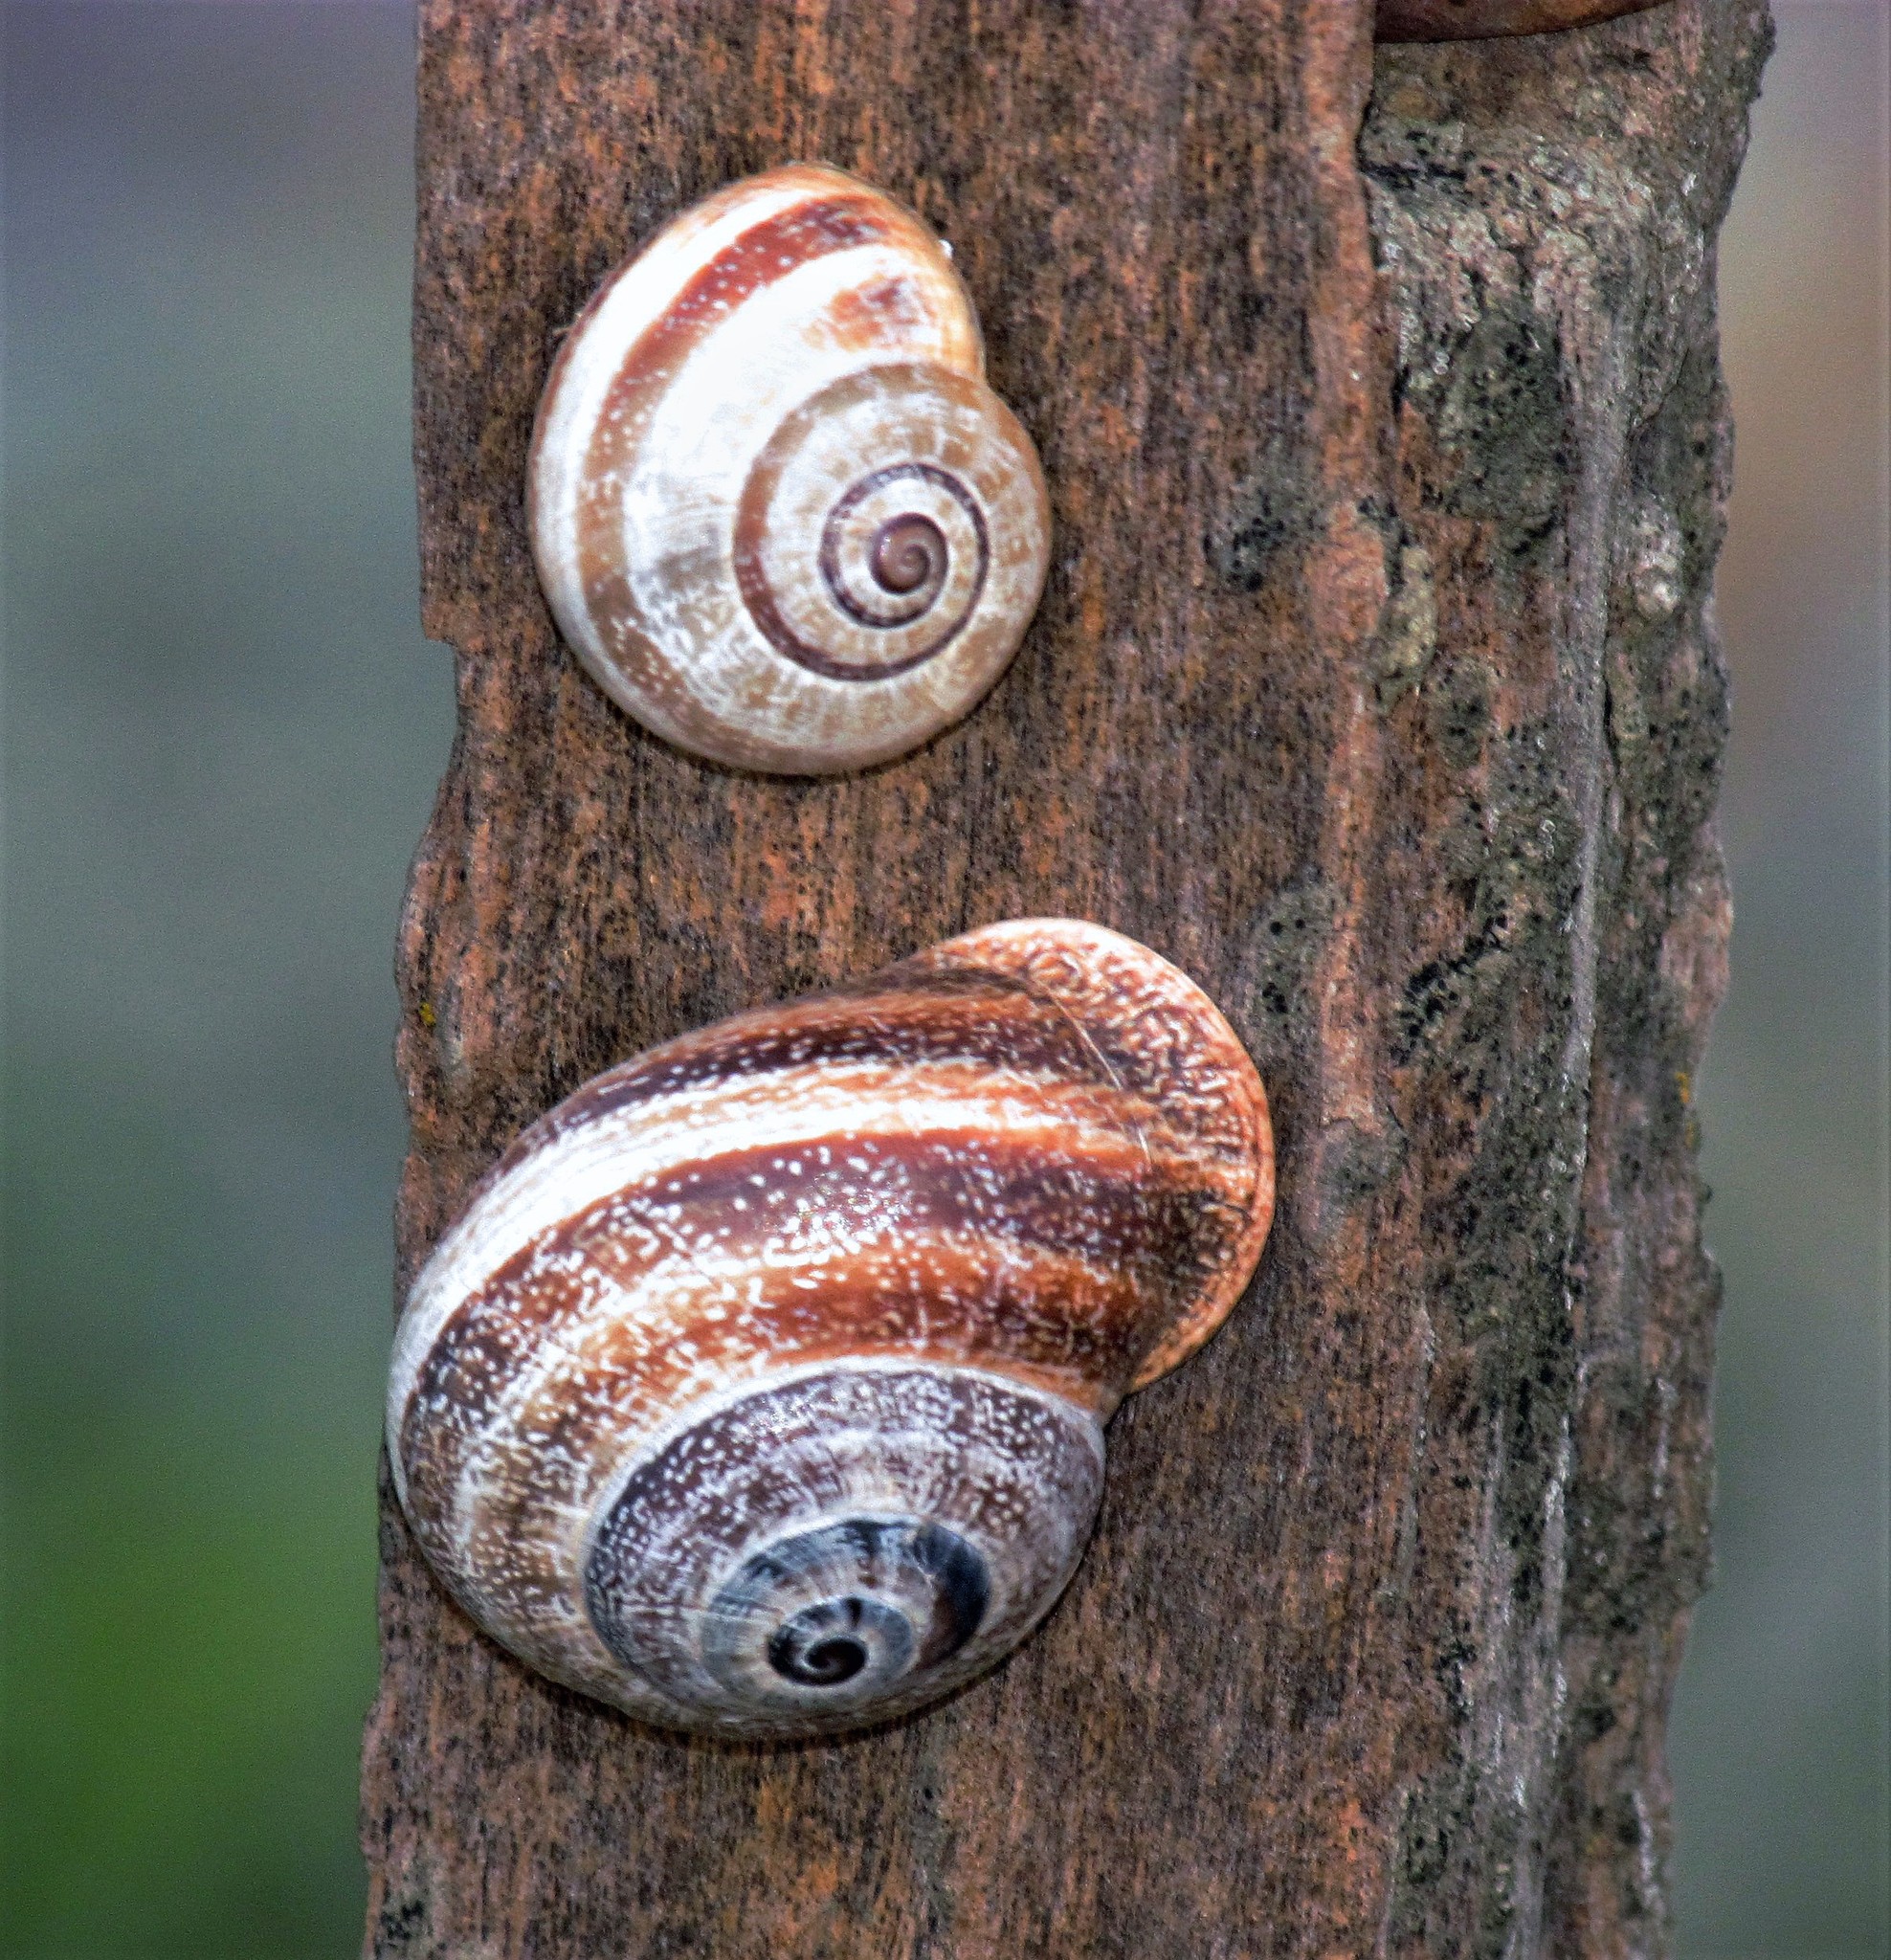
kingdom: Animalia
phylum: Mollusca
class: Gastropoda
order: Stylommatophora
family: Helicidae
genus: Otala
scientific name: Otala punctata
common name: Milk snail
